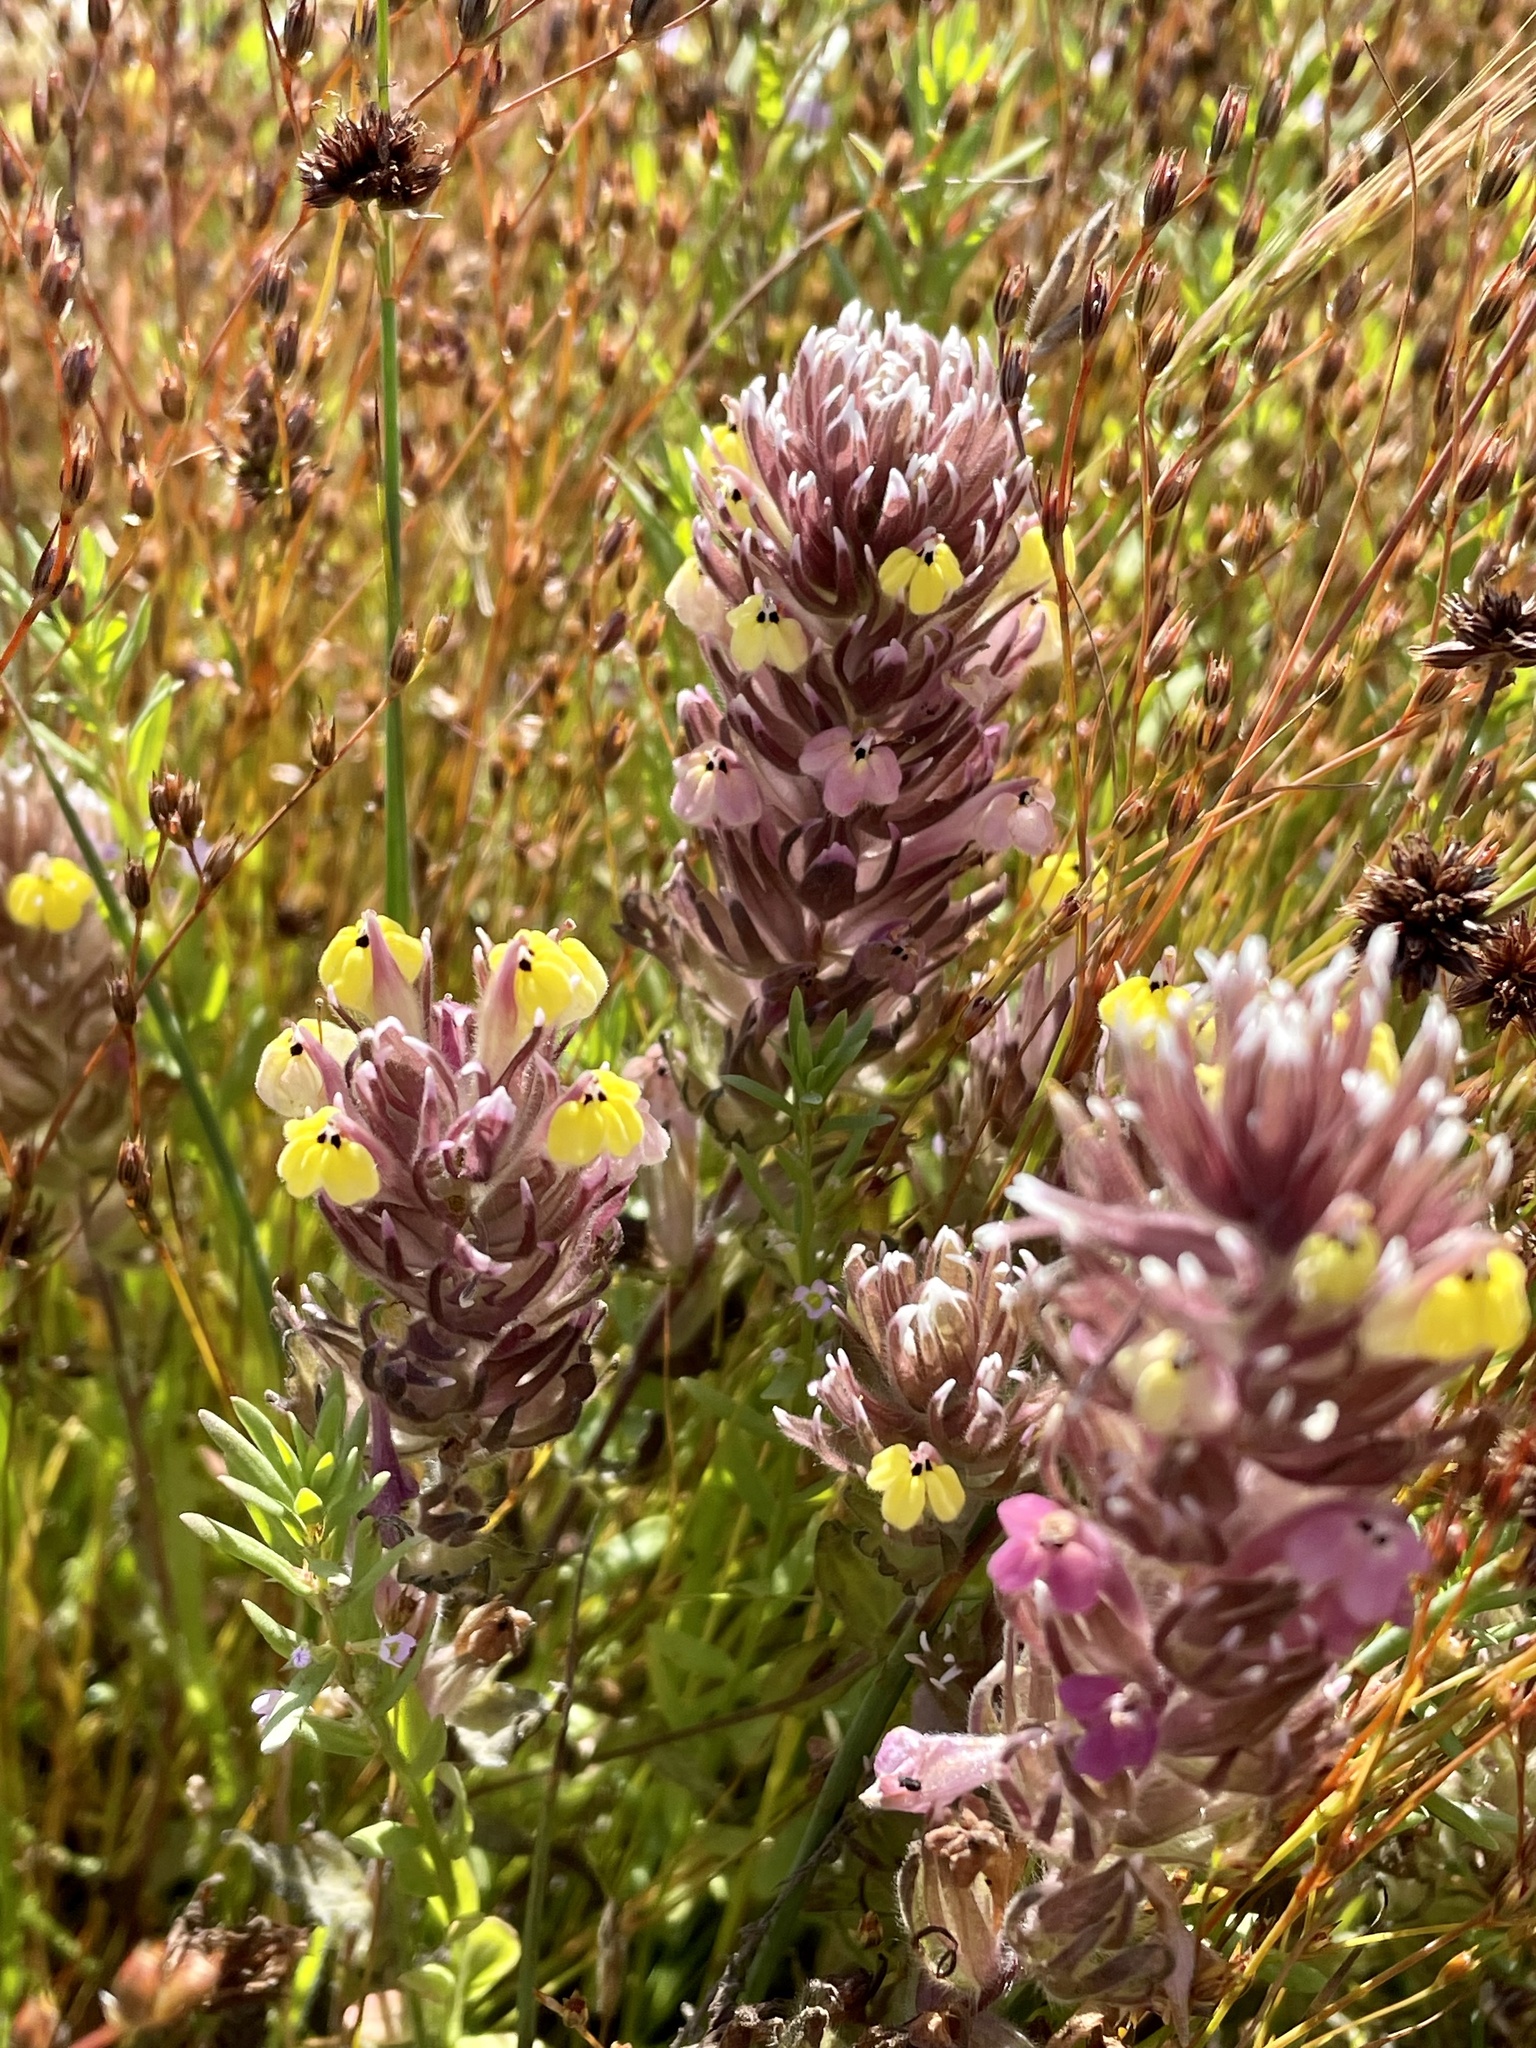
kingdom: Plantae
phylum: Tracheophyta
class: Magnoliopsida
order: Lamiales
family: Orobanchaceae
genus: Castilleja
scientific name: Castilleja ambigua
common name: Johnny-nip
